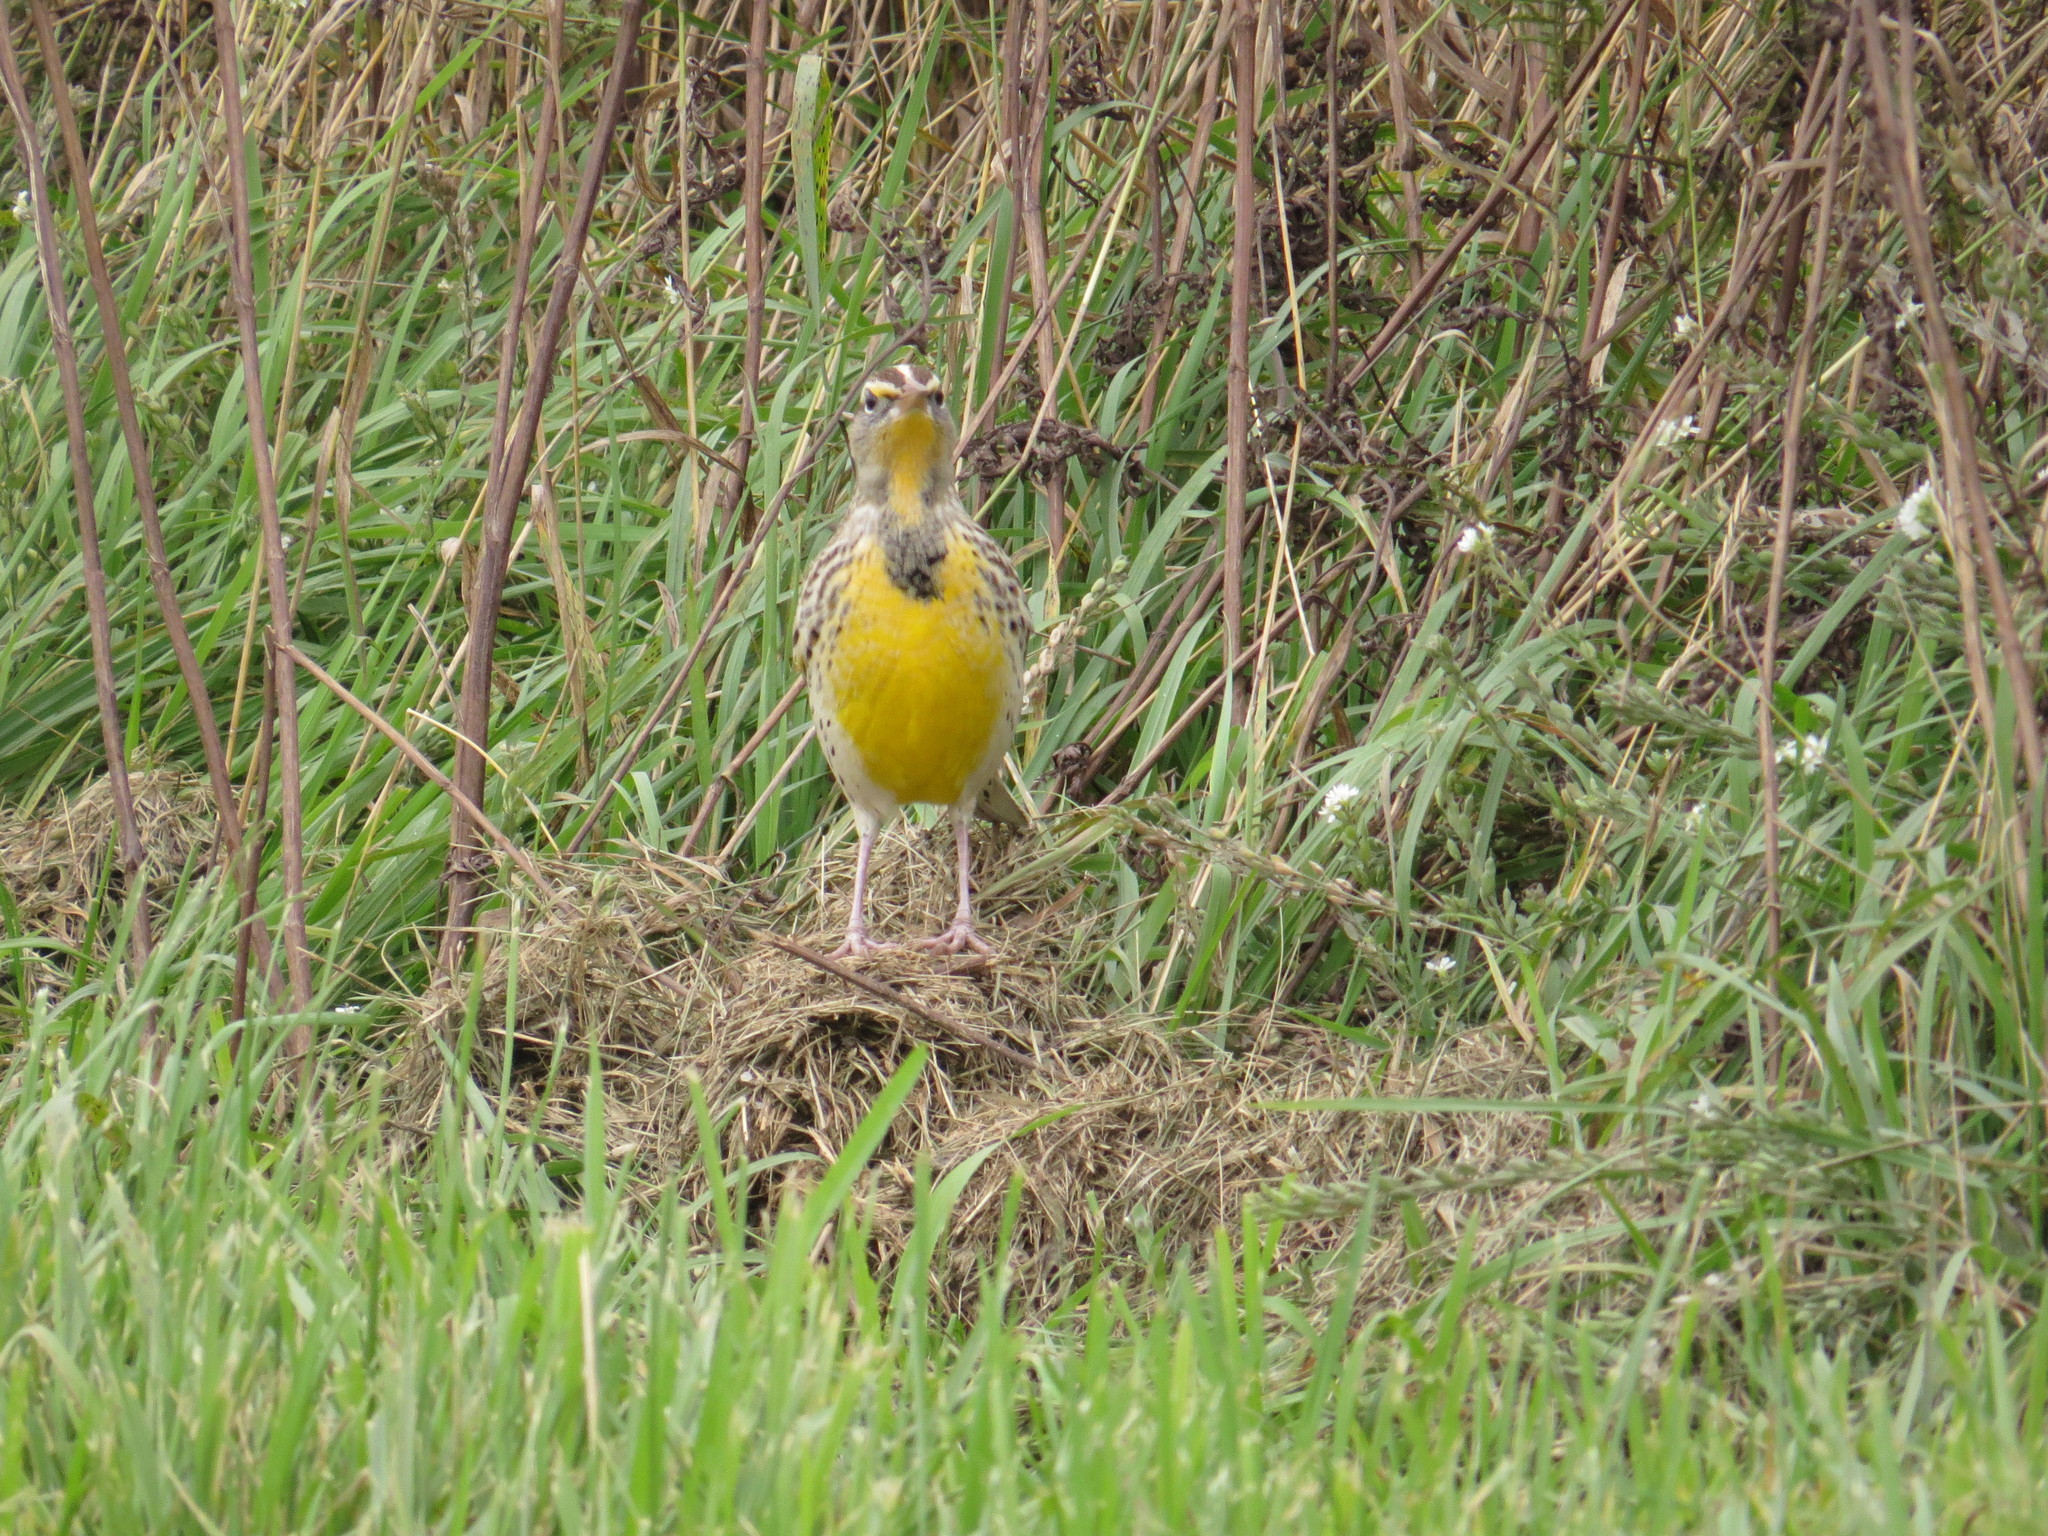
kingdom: Animalia
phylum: Chordata
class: Aves
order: Passeriformes
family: Icteridae
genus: Sturnella
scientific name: Sturnella neglecta
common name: Western meadowlark
